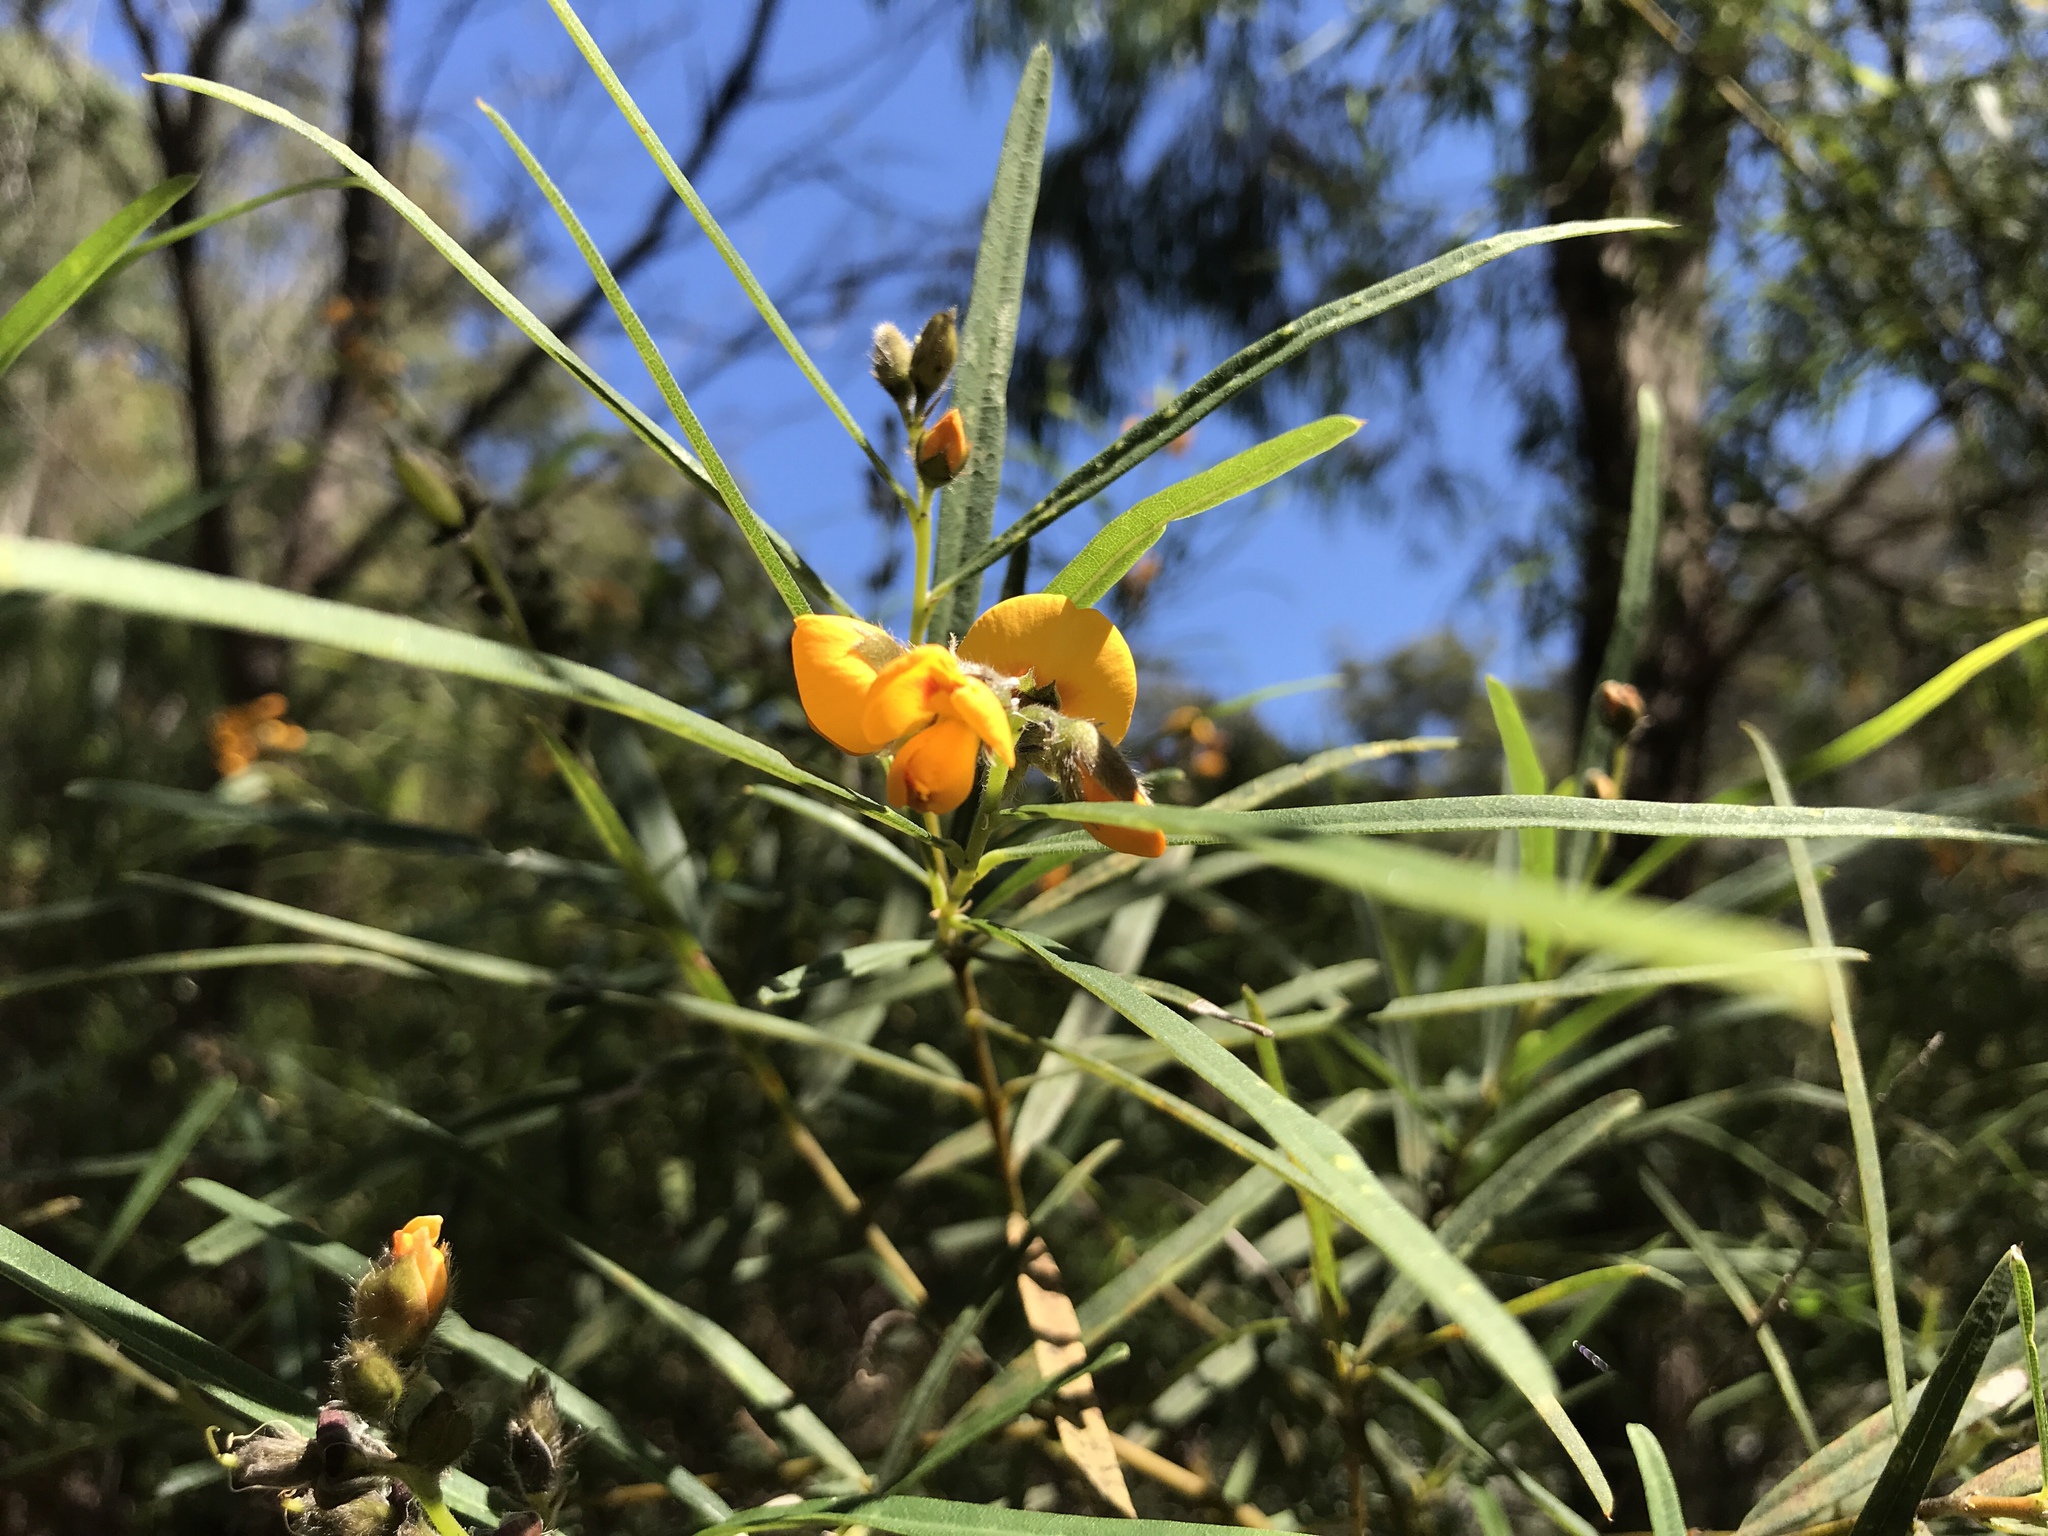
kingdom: Plantae
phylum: Tracheophyta
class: Magnoliopsida
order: Fabales
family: Fabaceae
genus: Callistachys
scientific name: Callistachys lanceolata
